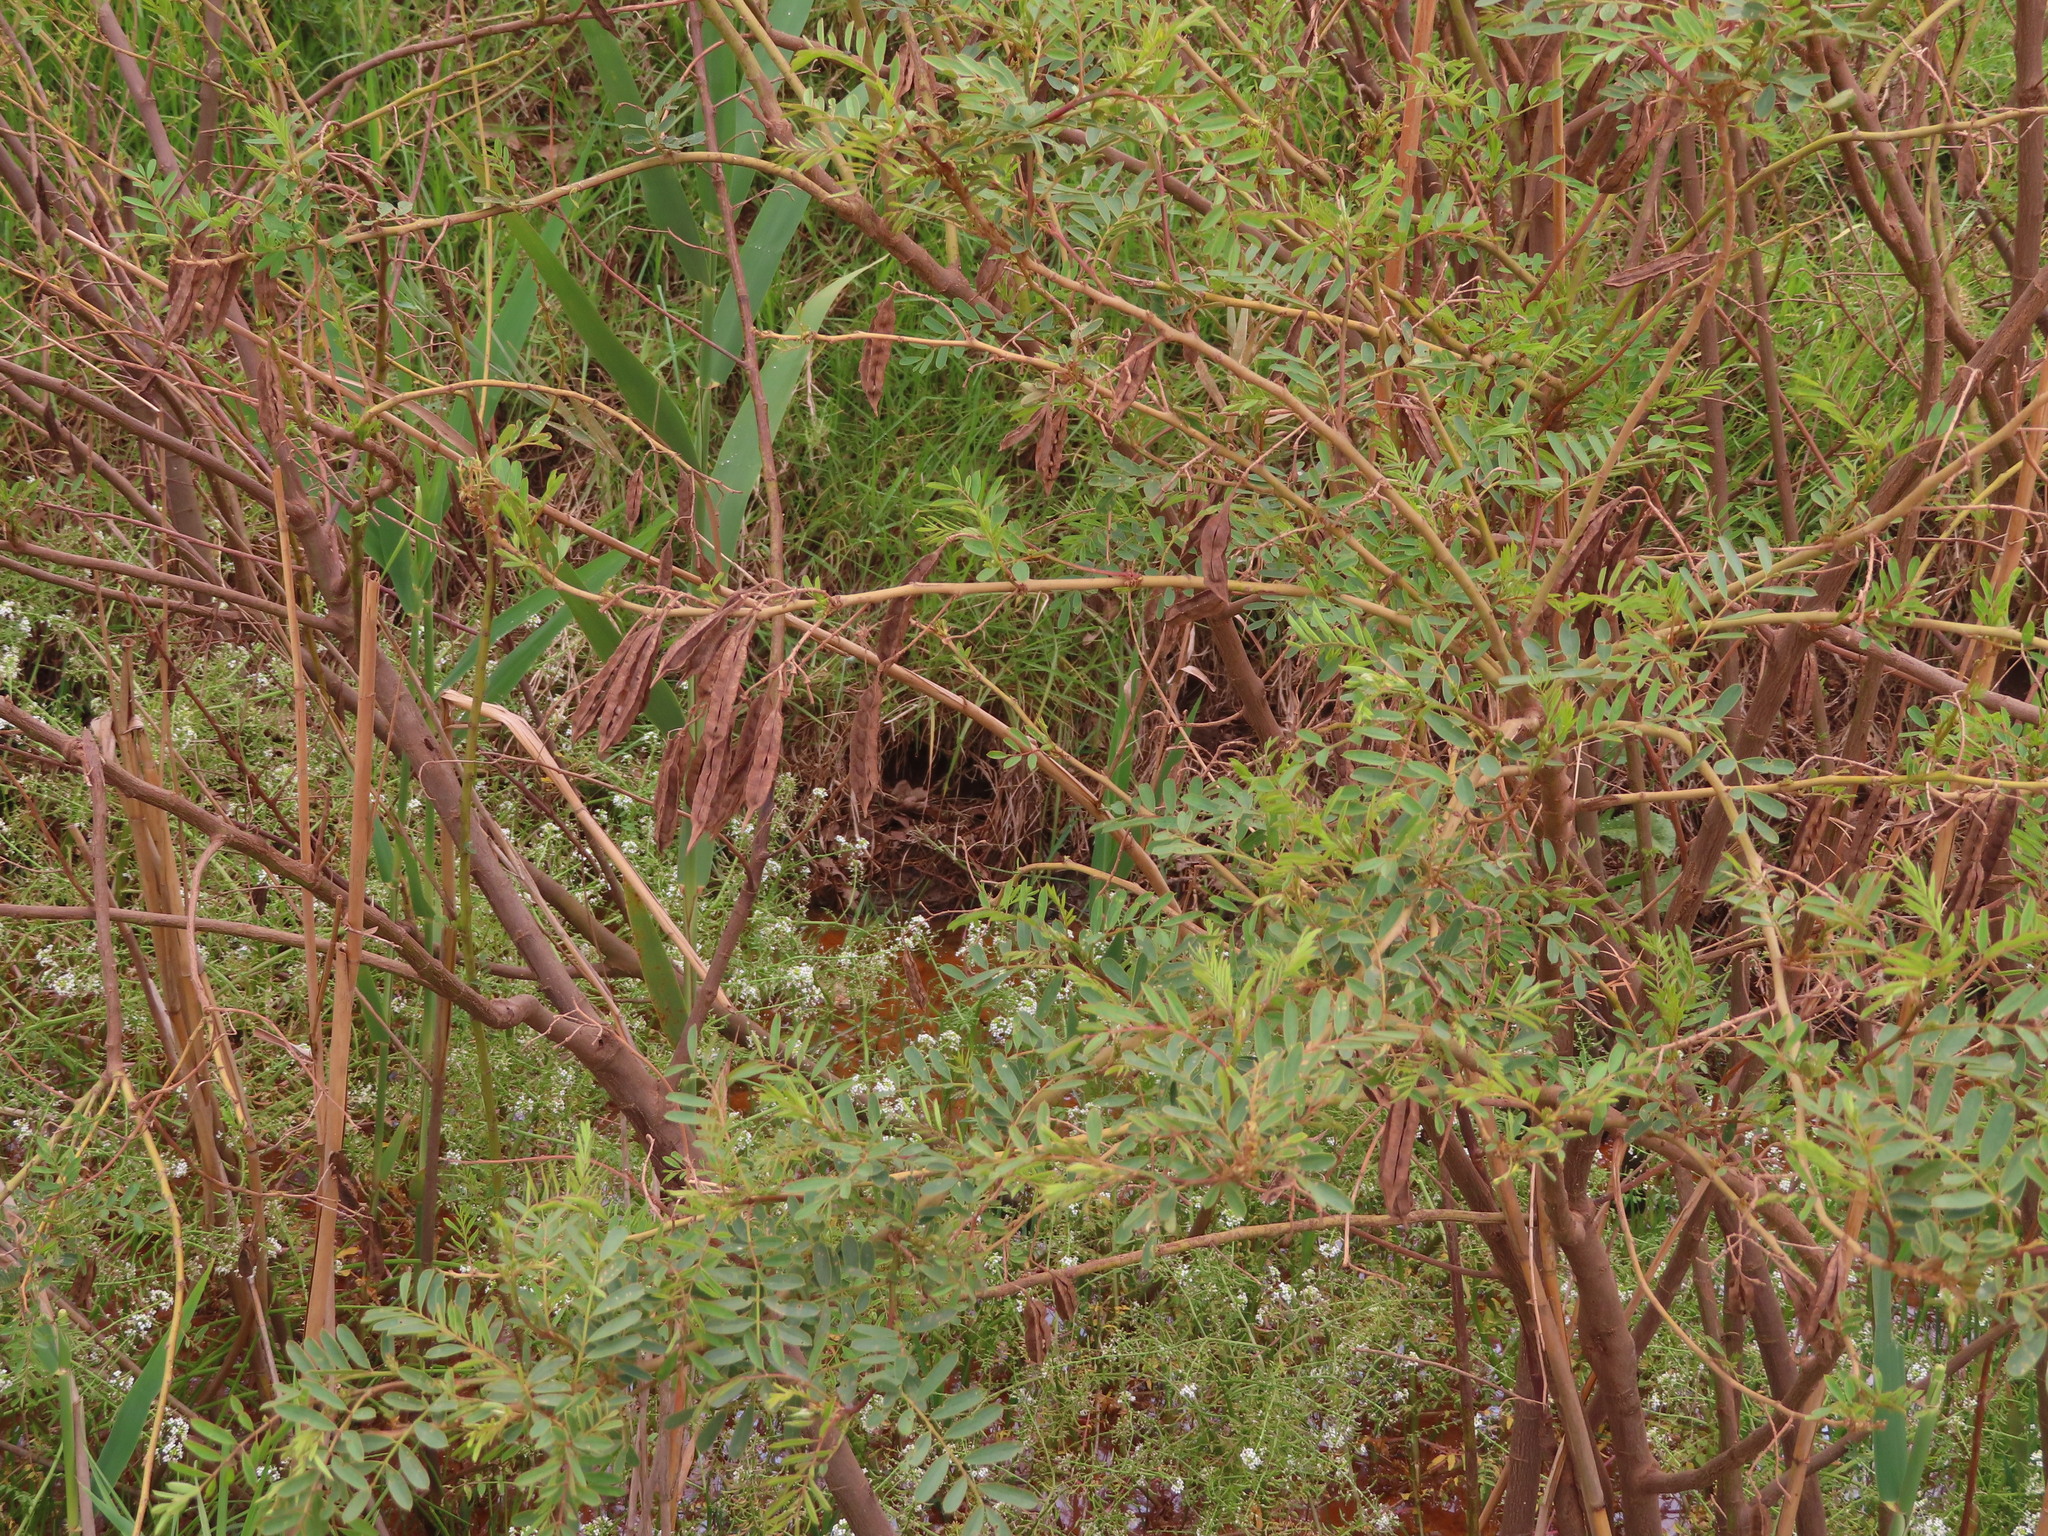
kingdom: Plantae
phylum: Tracheophyta
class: Magnoliopsida
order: Fabales
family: Fabaceae
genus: Sesbania
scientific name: Sesbania punicea
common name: Rattlebox
